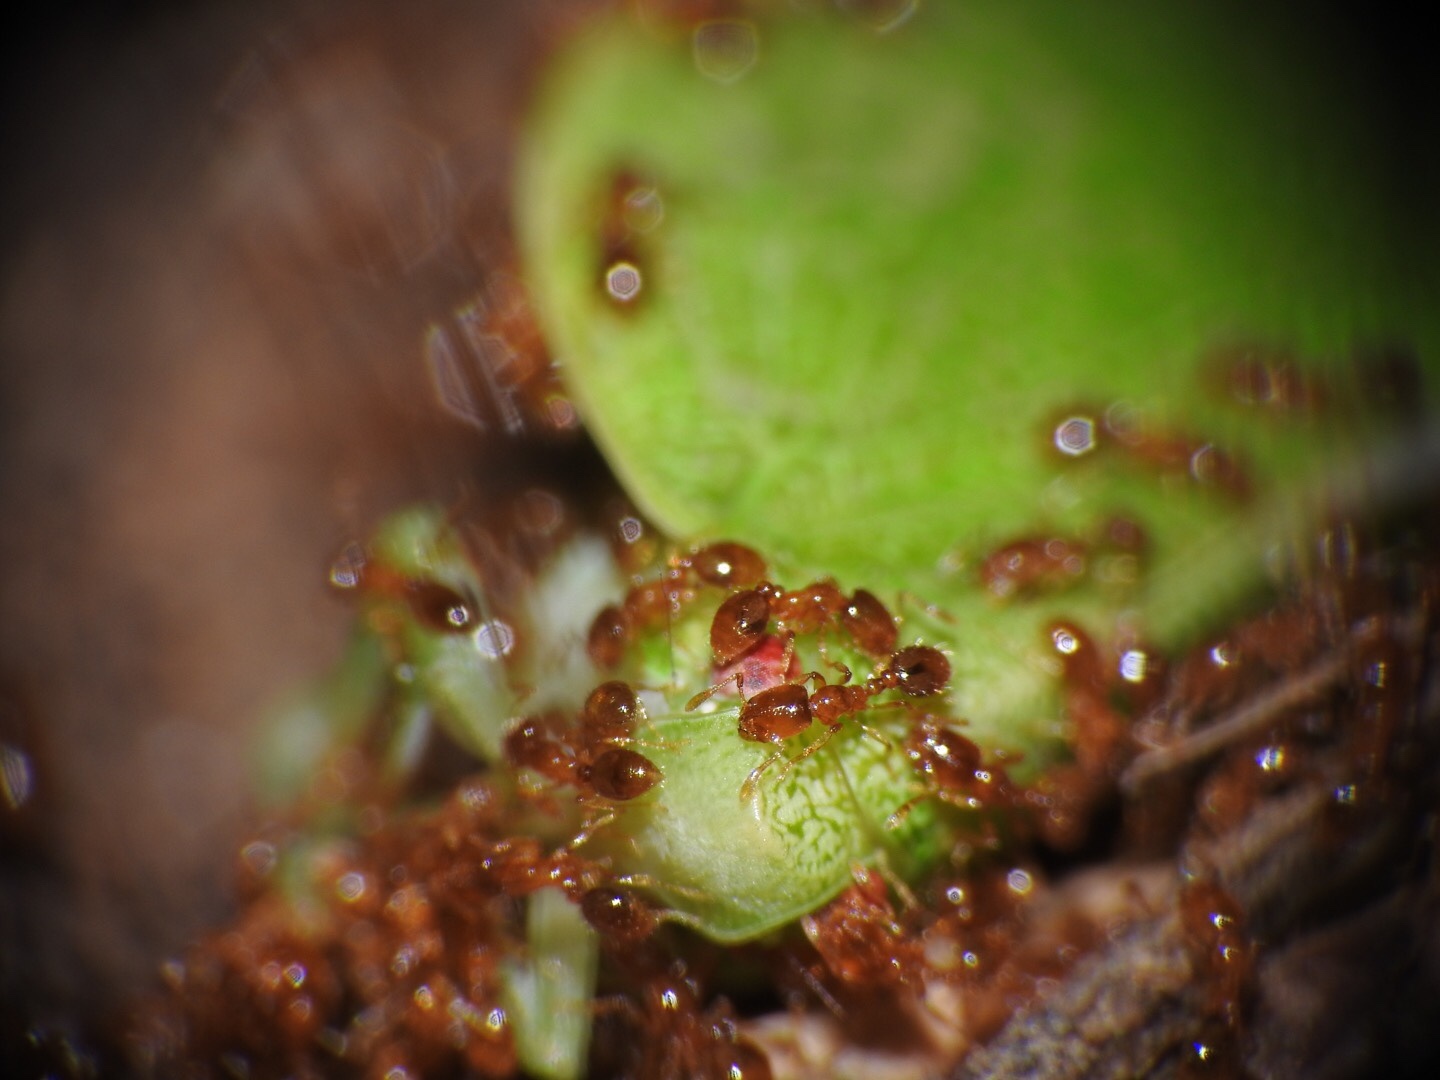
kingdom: Animalia
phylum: Arthropoda
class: Insecta
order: Hymenoptera
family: Formicidae
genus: Solenopsis
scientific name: Solenopsis
